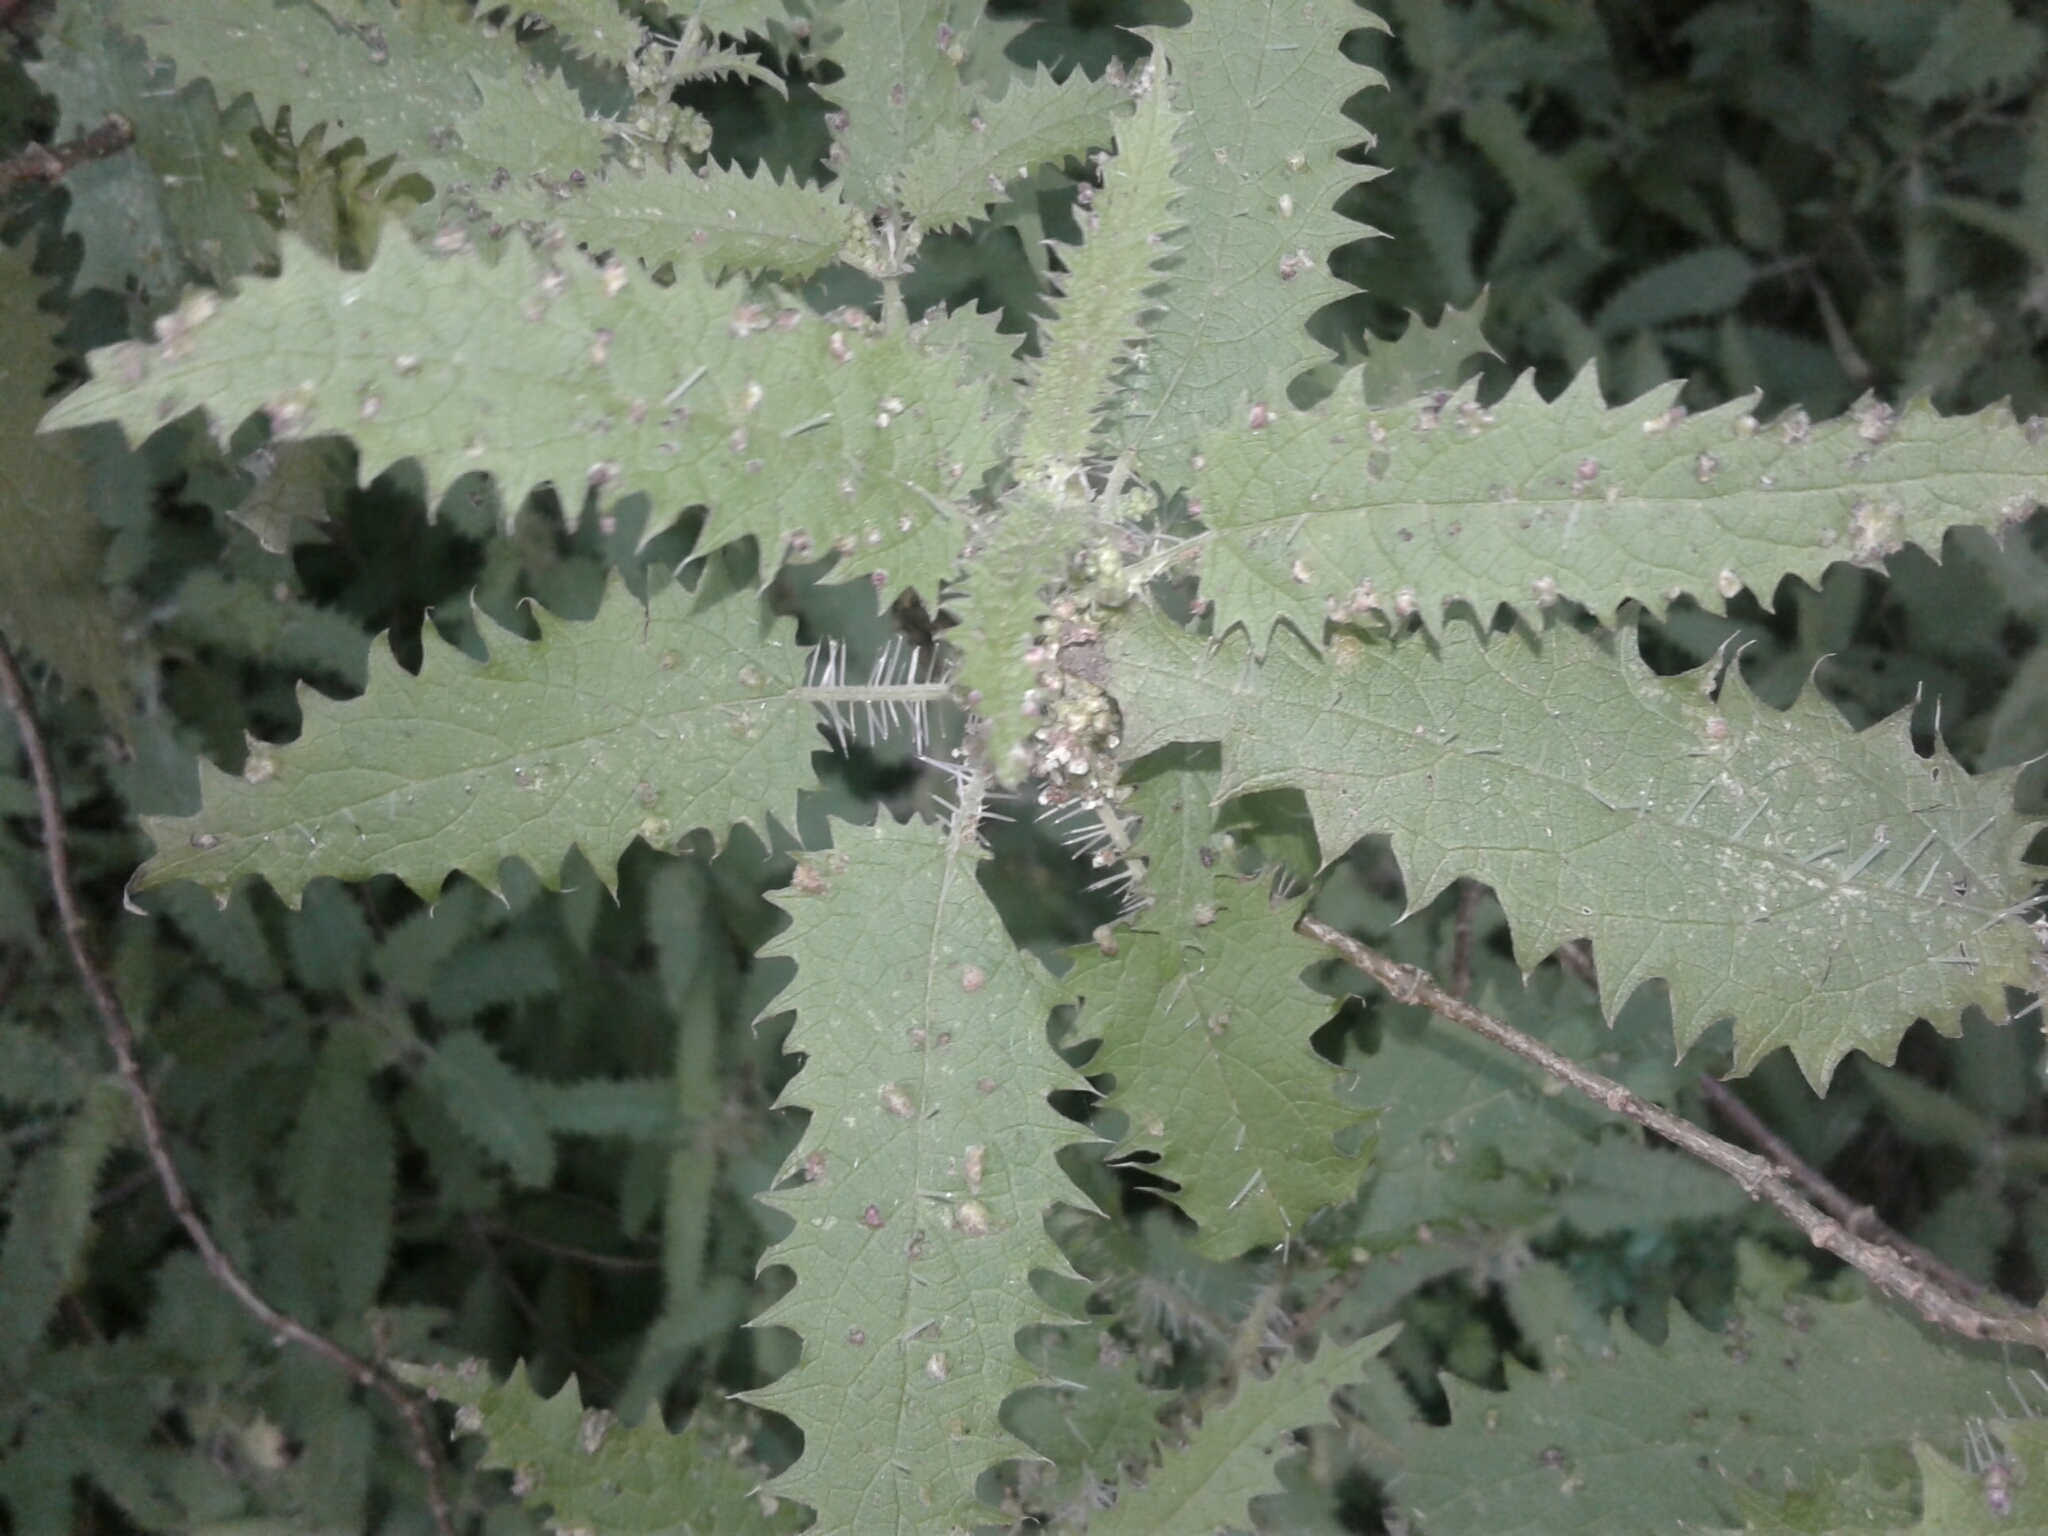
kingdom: Plantae
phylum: Tracheophyta
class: Magnoliopsida
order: Rosales
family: Urticaceae
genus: Urtica
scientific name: Urtica ferox
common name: Tree nettle
